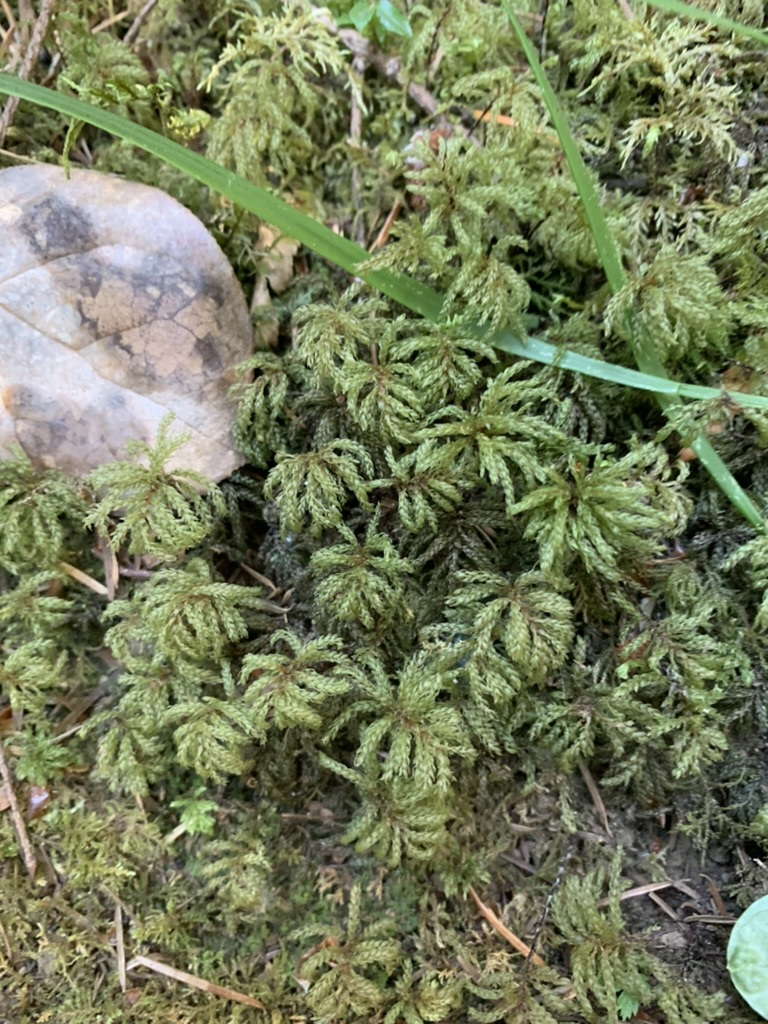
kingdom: Plantae
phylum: Bryophyta
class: Bryopsida
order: Bryales
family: Mniaceae
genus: Leucolepis
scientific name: Leucolepis acanthoneura
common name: Leucolepis umbrella moss
